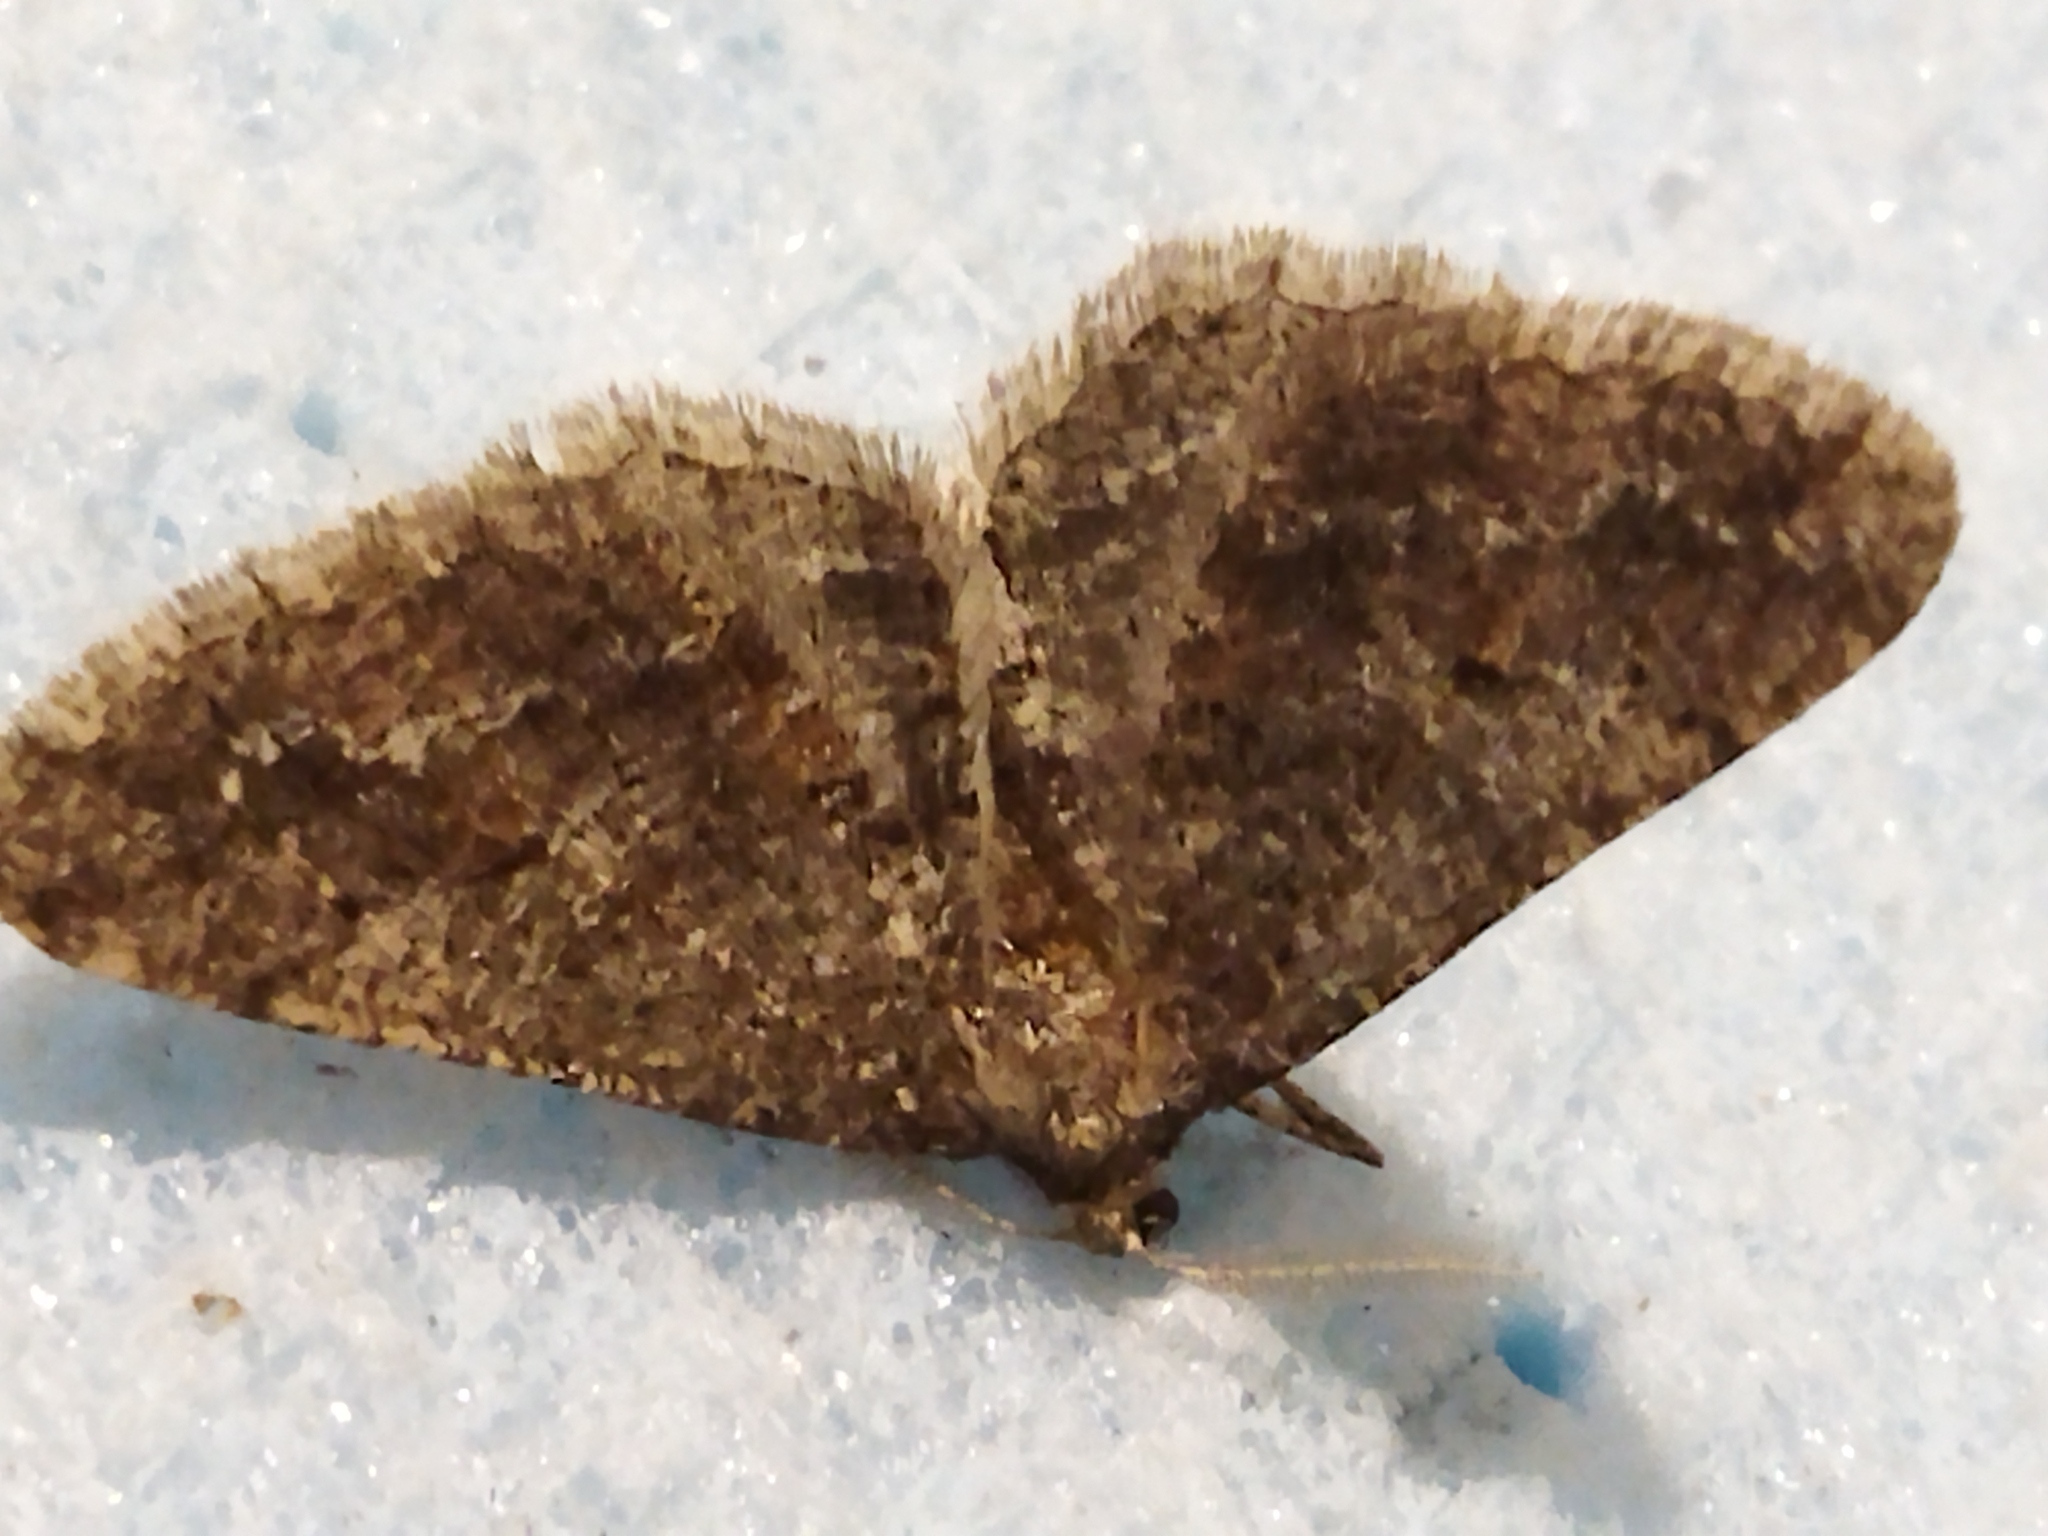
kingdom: Animalia
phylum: Arthropoda
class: Insecta
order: Lepidoptera
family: Geometridae
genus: Agriopis
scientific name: Agriopis bajaria
